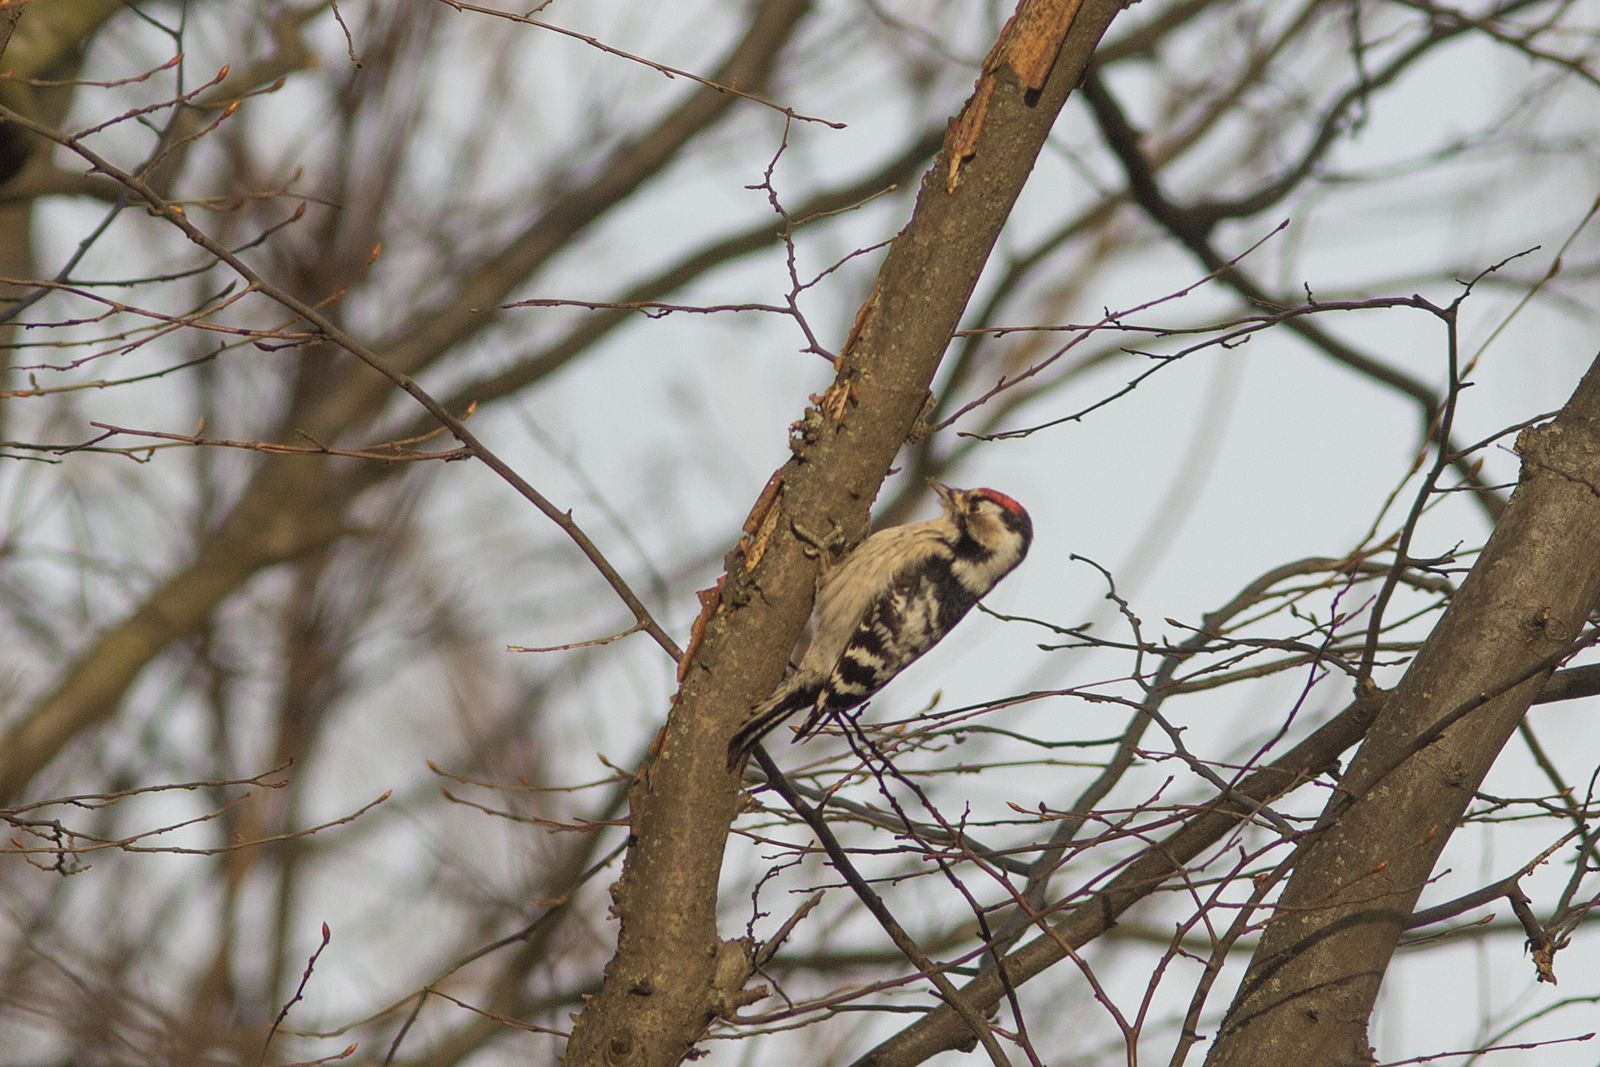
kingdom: Animalia
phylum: Chordata
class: Aves
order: Piciformes
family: Picidae
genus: Dryobates
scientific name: Dryobates minor
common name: Lesser spotted woodpecker
